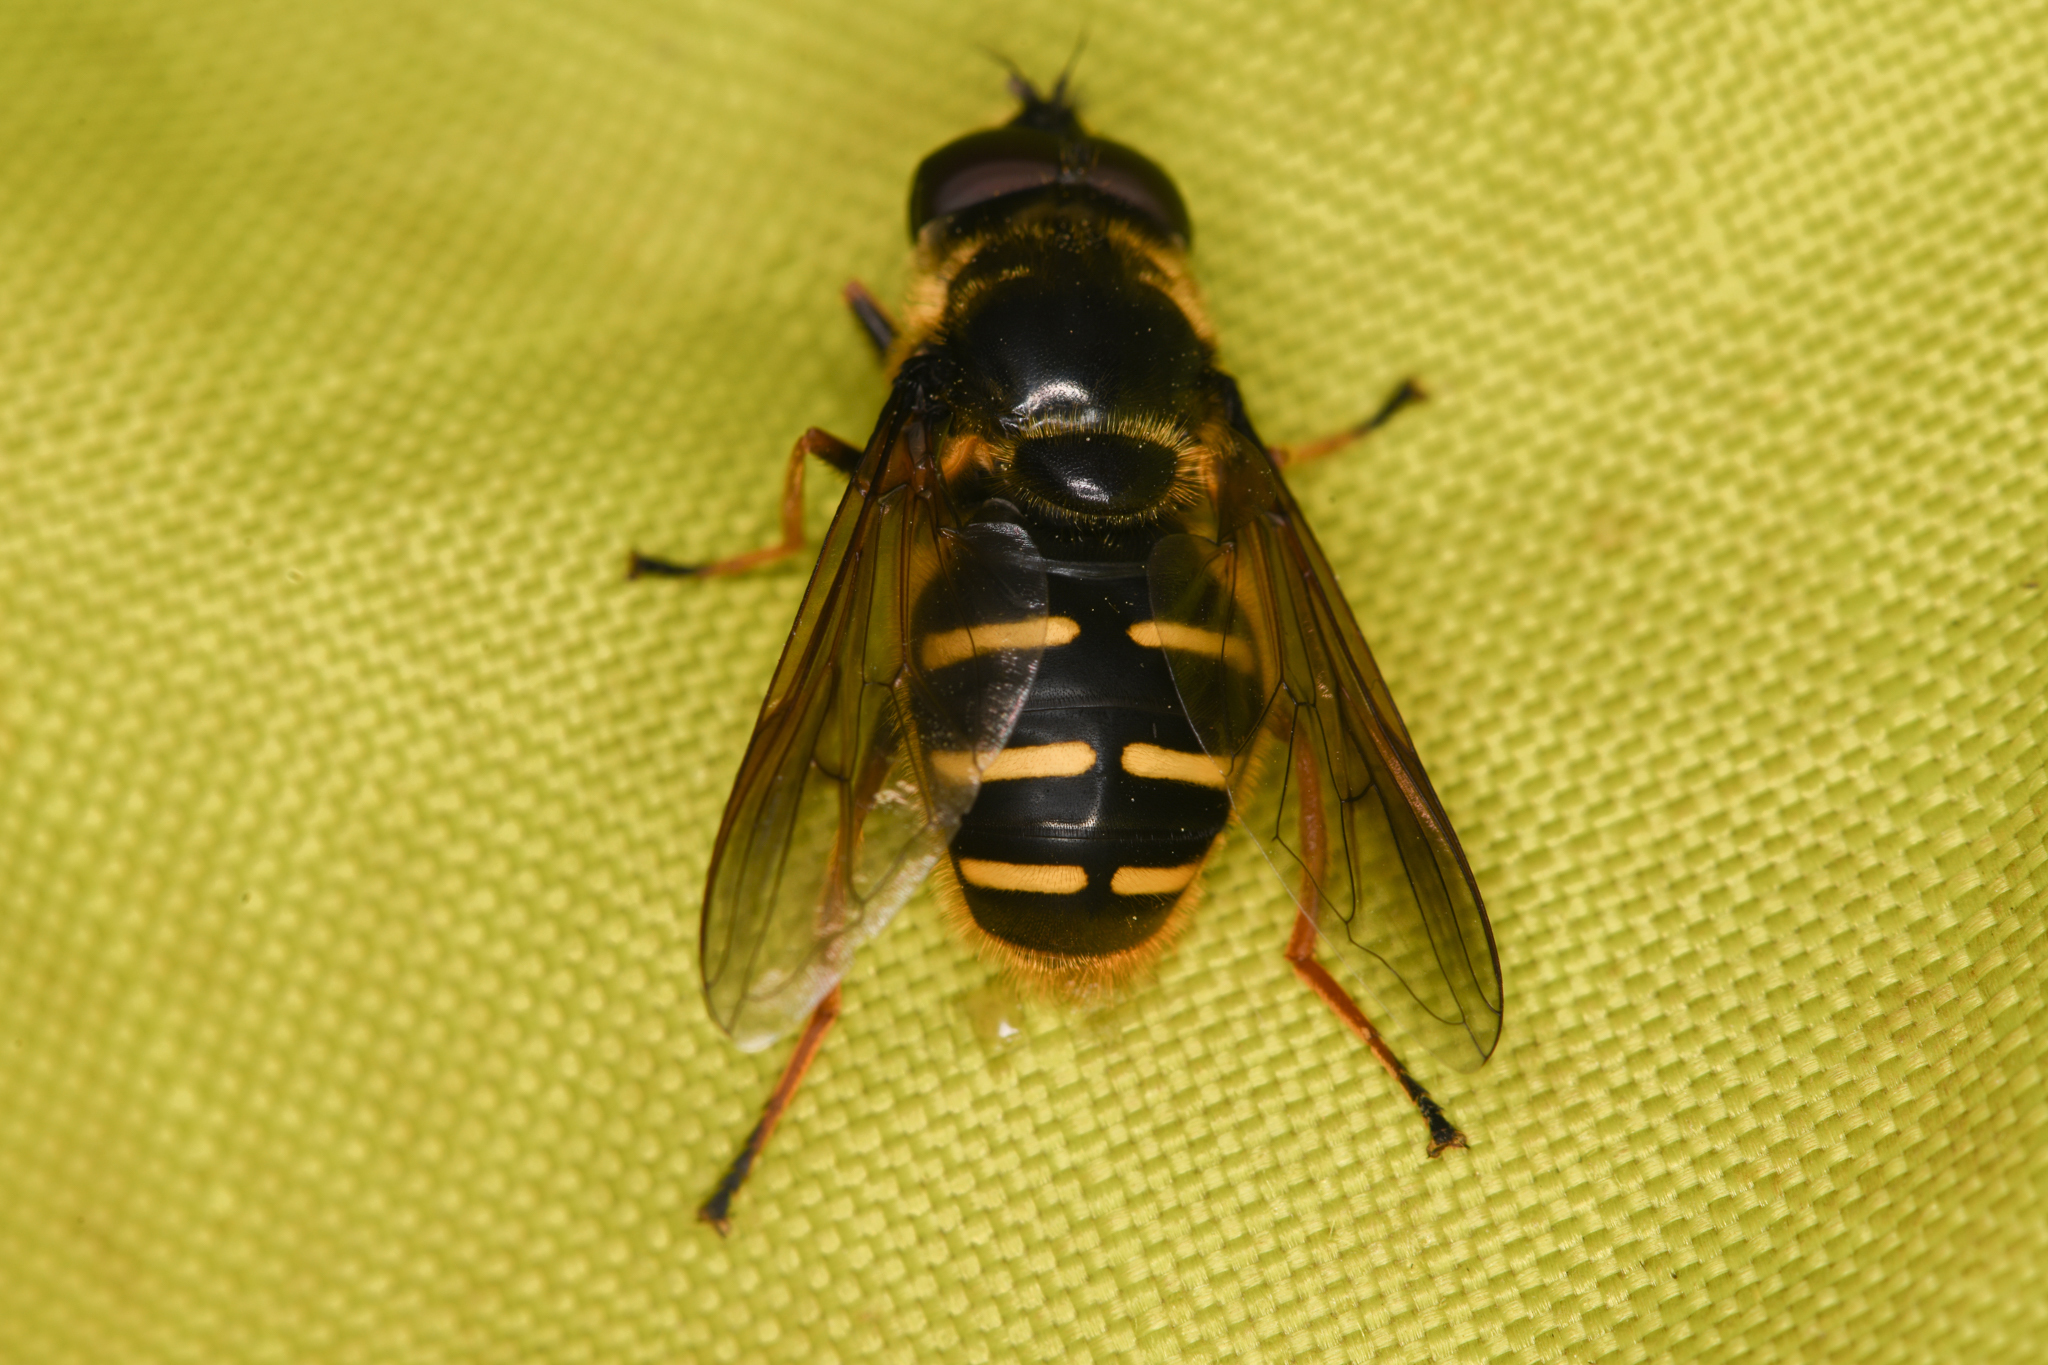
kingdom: Animalia
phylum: Arthropoda
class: Insecta
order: Diptera
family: Syrphidae
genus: Sericomyia
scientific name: Sericomyia chalcopyga
